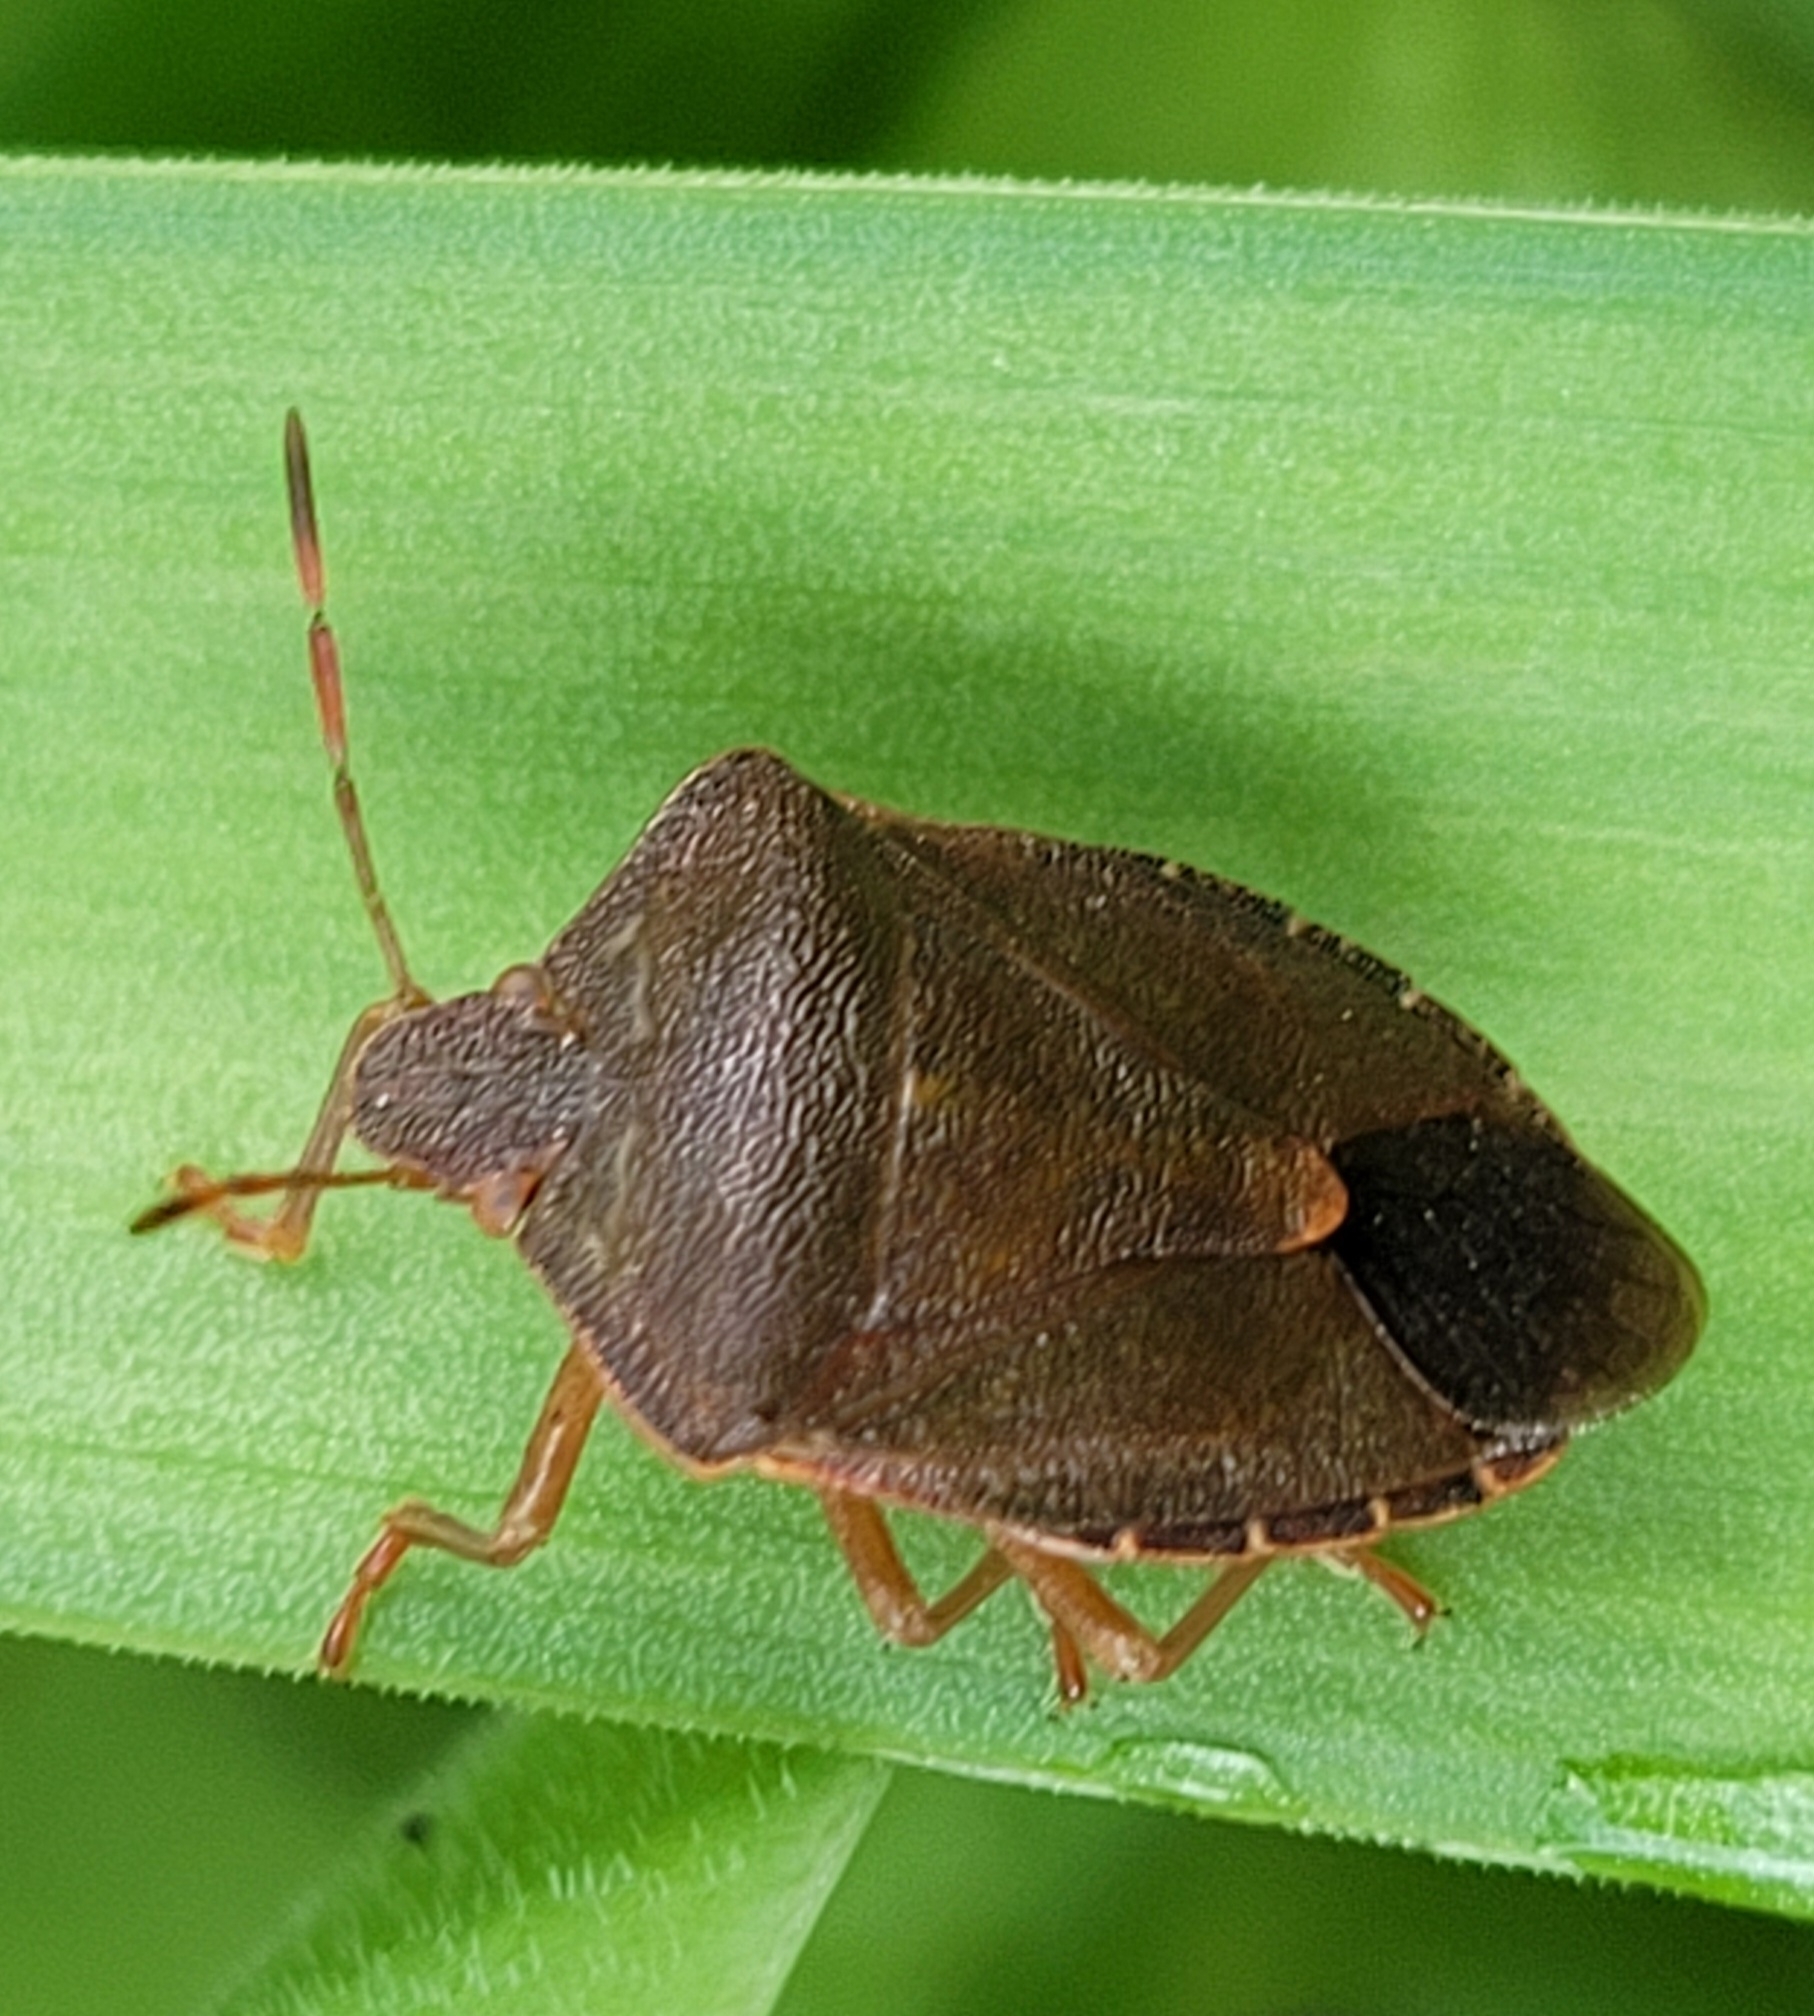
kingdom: Animalia
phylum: Arthropoda
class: Insecta
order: Hemiptera
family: Pentatomidae
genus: Palomena
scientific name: Palomena prasina
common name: Green shieldbug
